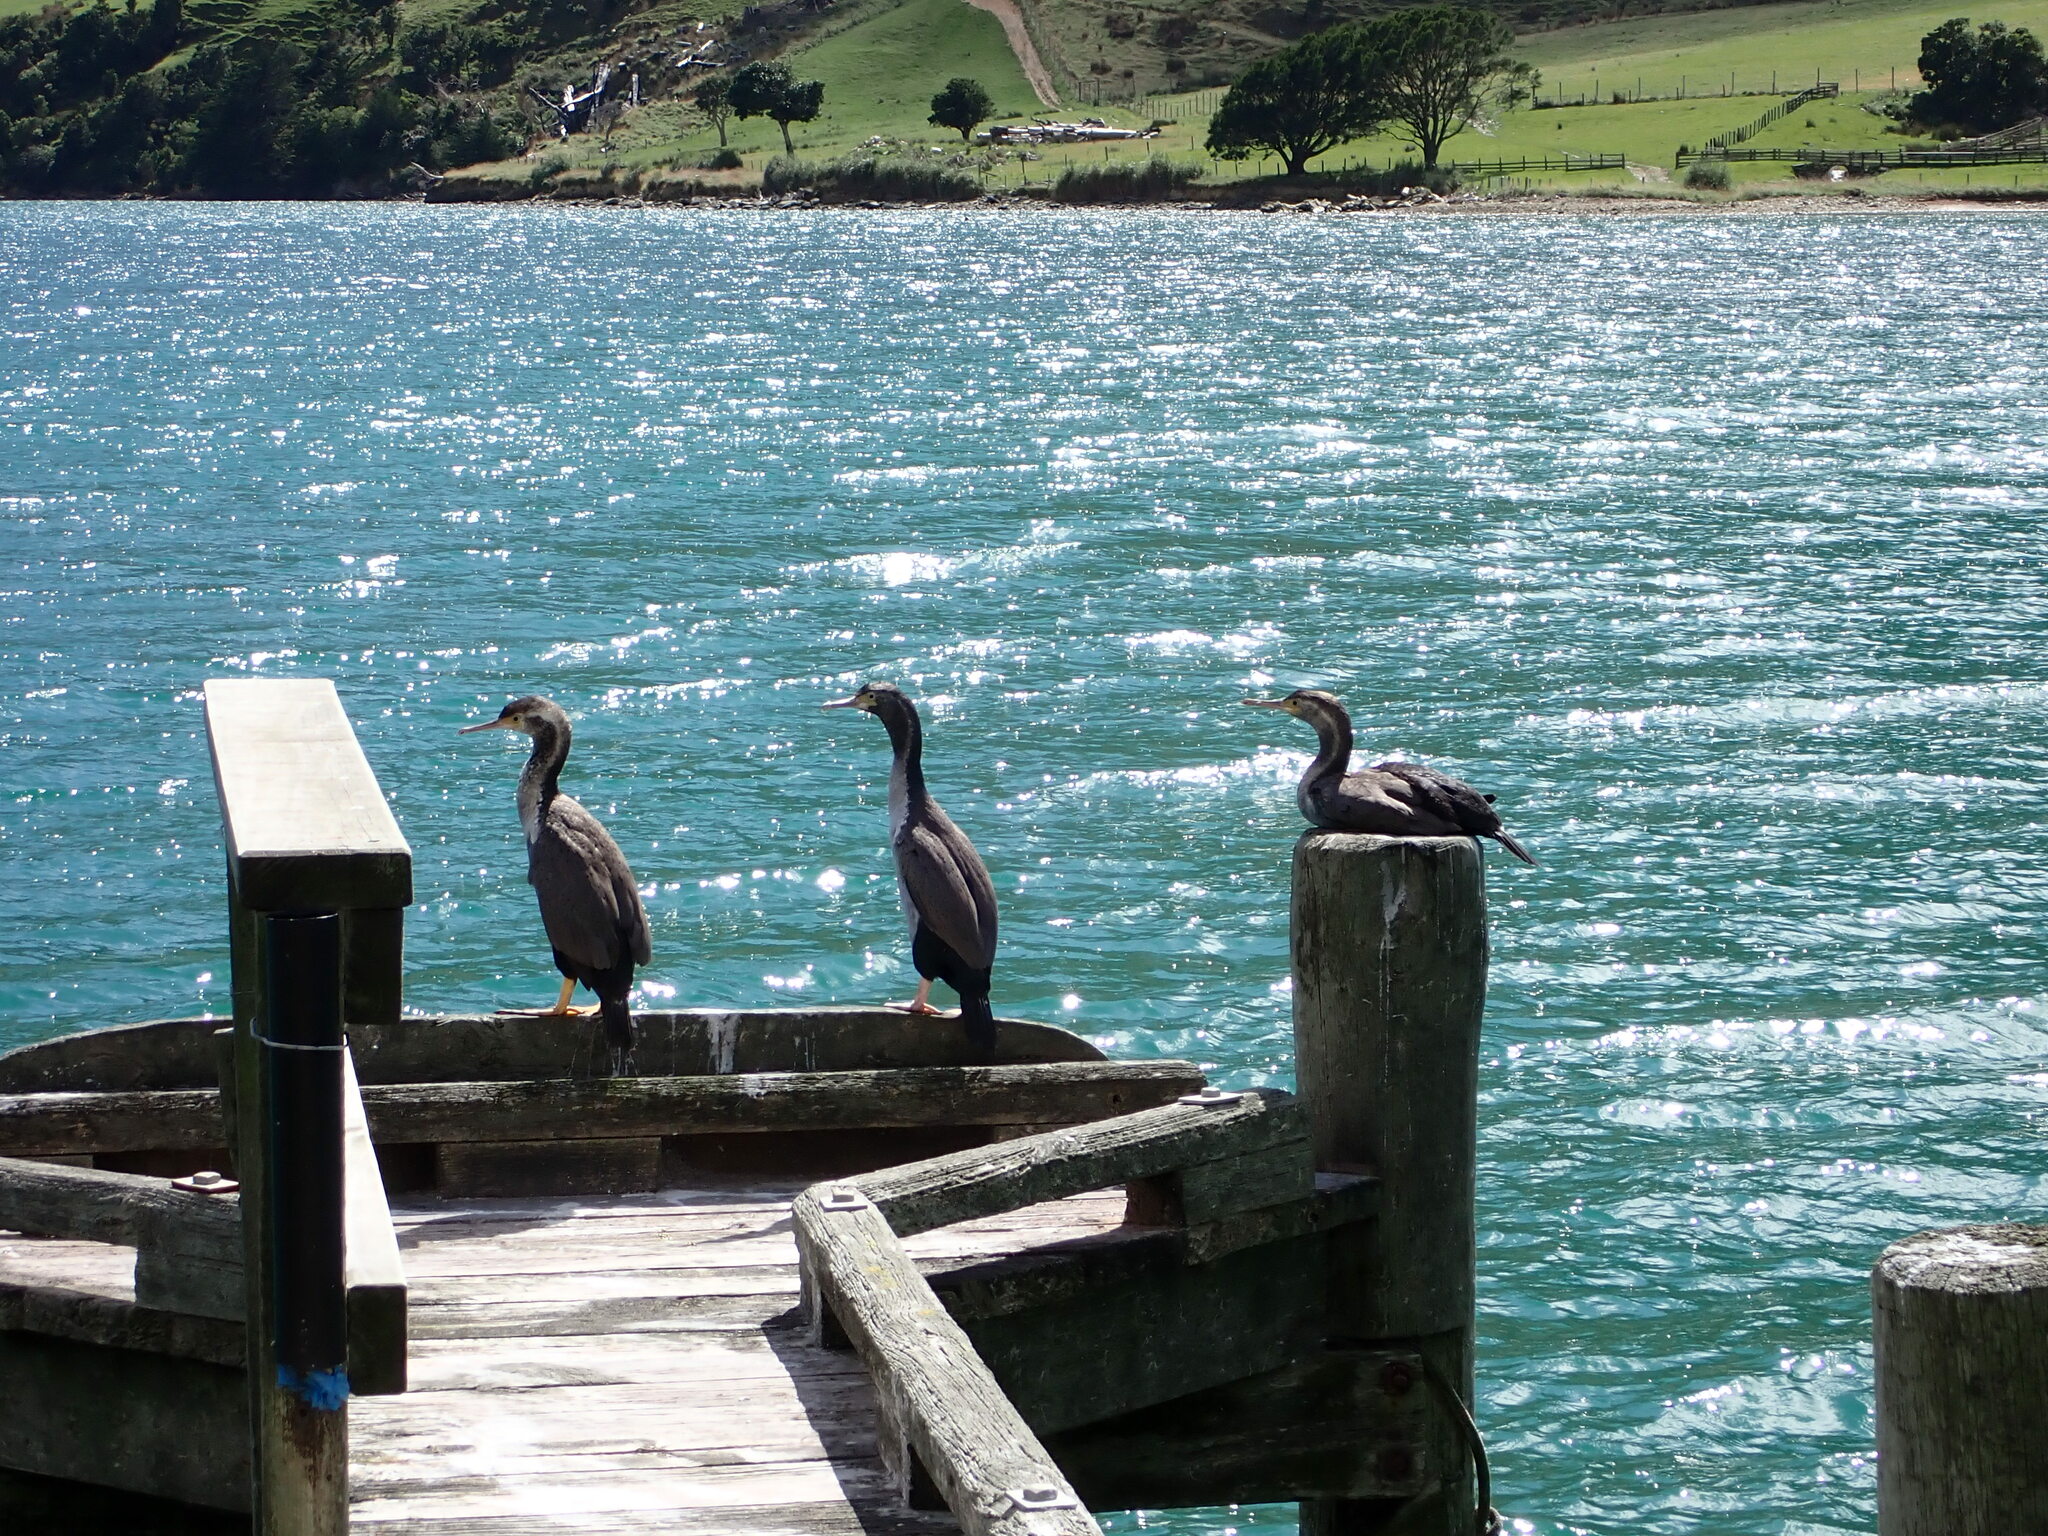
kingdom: Animalia
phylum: Chordata
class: Aves
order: Suliformes
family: Phalacrocoracidae
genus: Phalacrocorax
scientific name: Phalacrocorax punctatus
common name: Spotted shag
